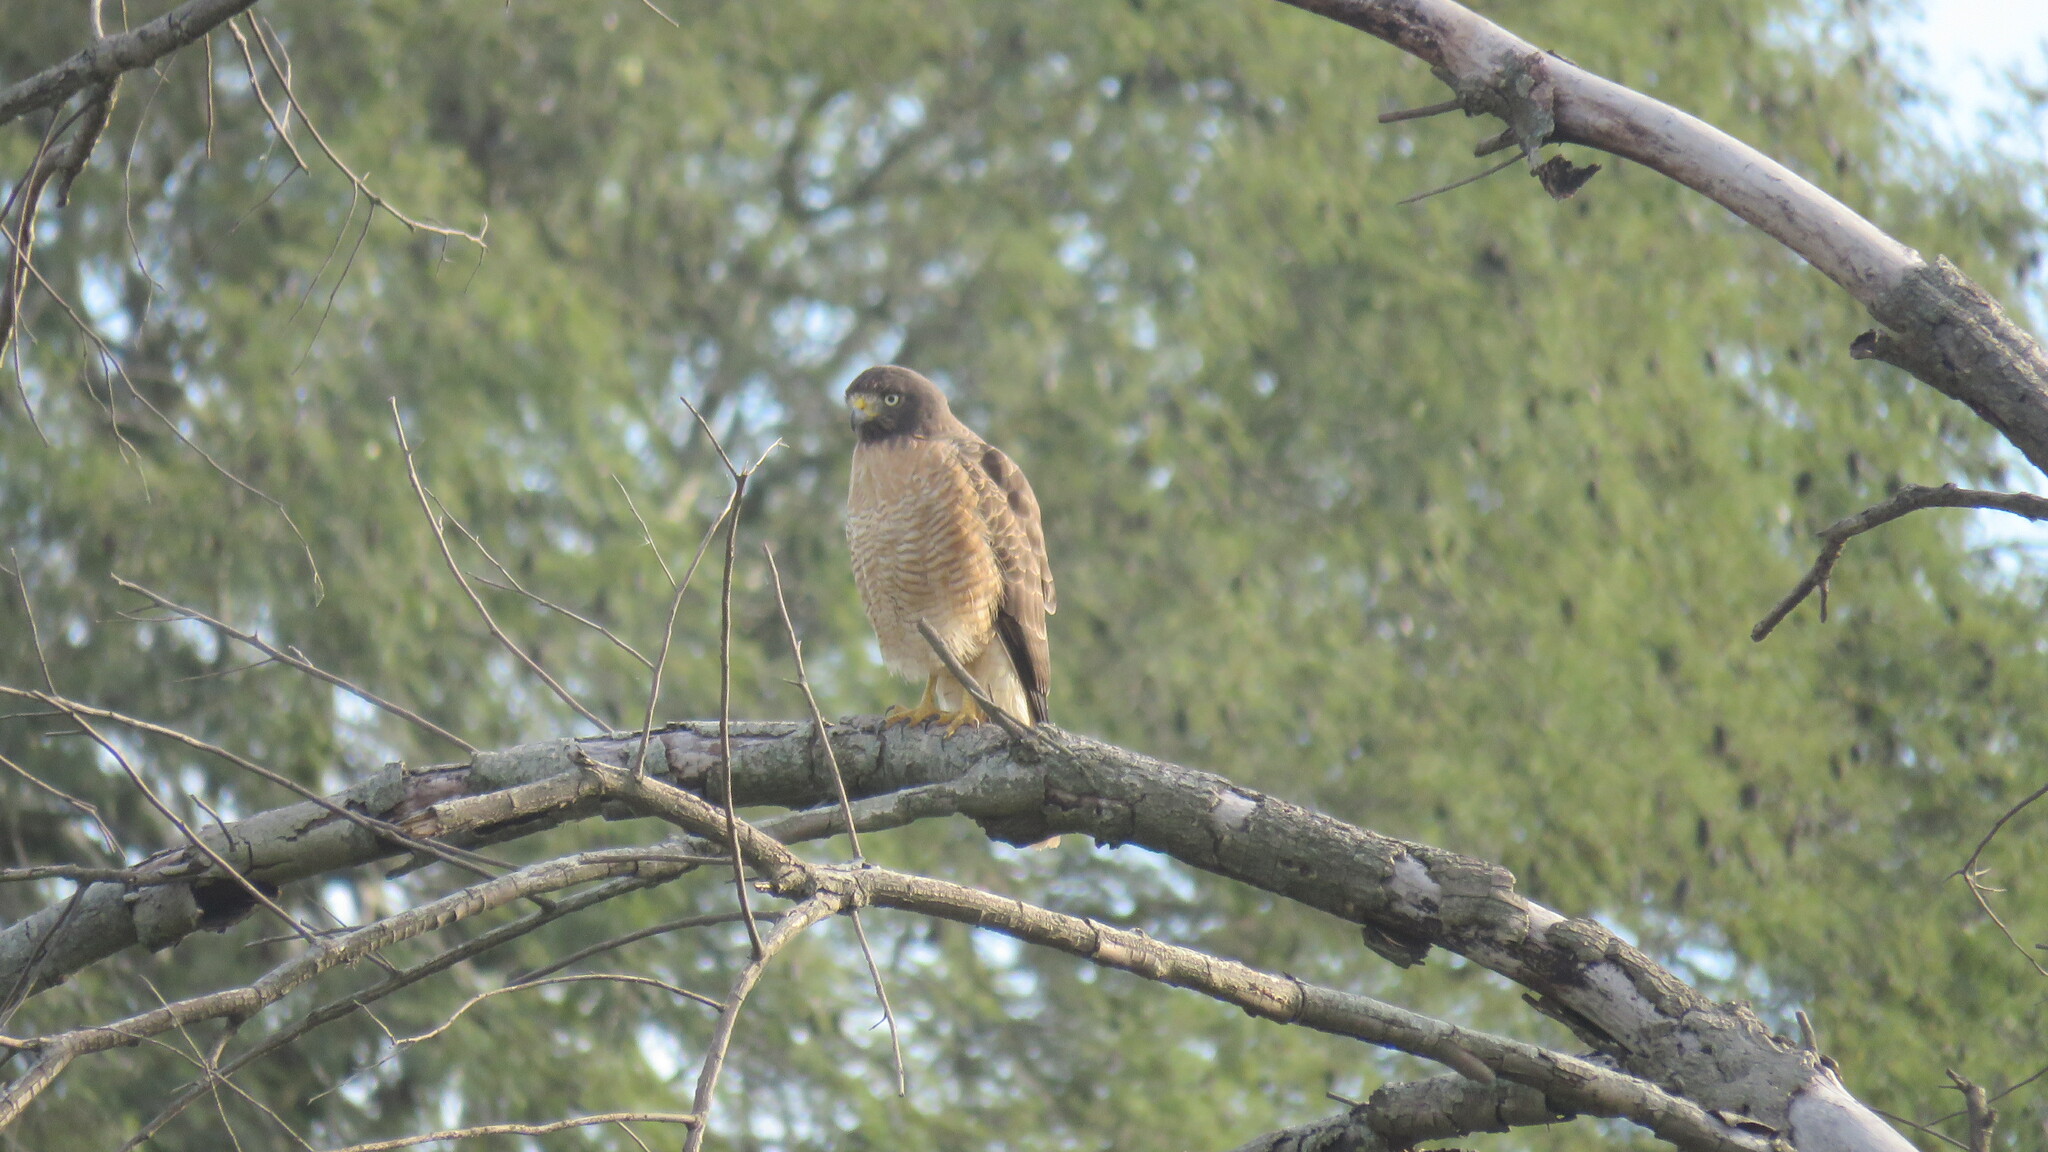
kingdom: Animalia
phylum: Chordata
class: Aves
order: Accipitriformes
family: Accipitridae
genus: Rupornis
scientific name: Rupornis magnirostris
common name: Roadside hawk
